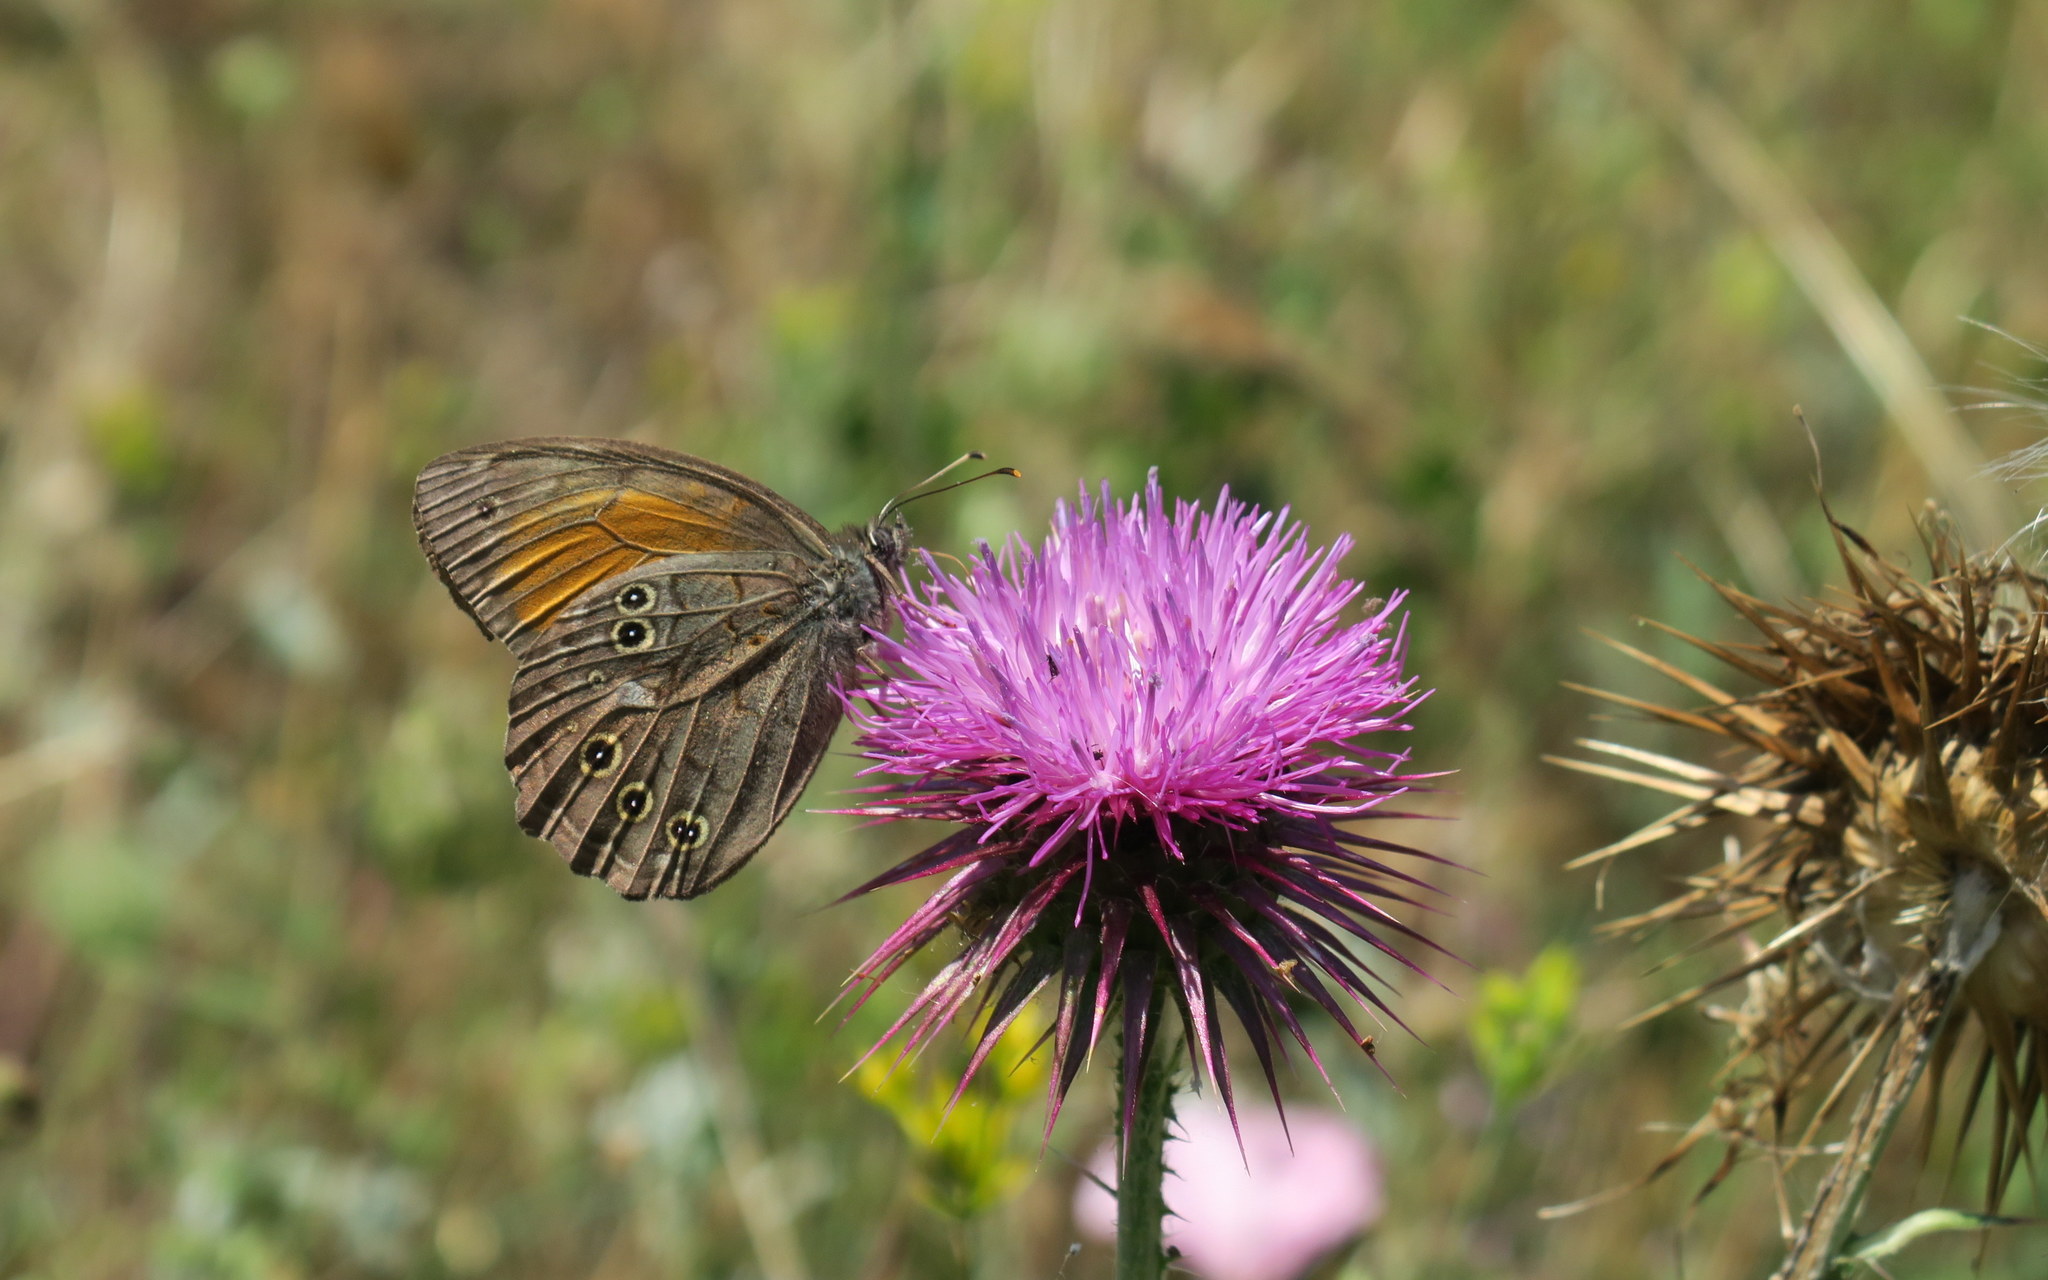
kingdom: Animalia
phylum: Arthropoda
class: Insecta
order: Lepidoptera
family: Nymphalidae
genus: Kirinia
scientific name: Kirinia roxelana
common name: Lattice brown
